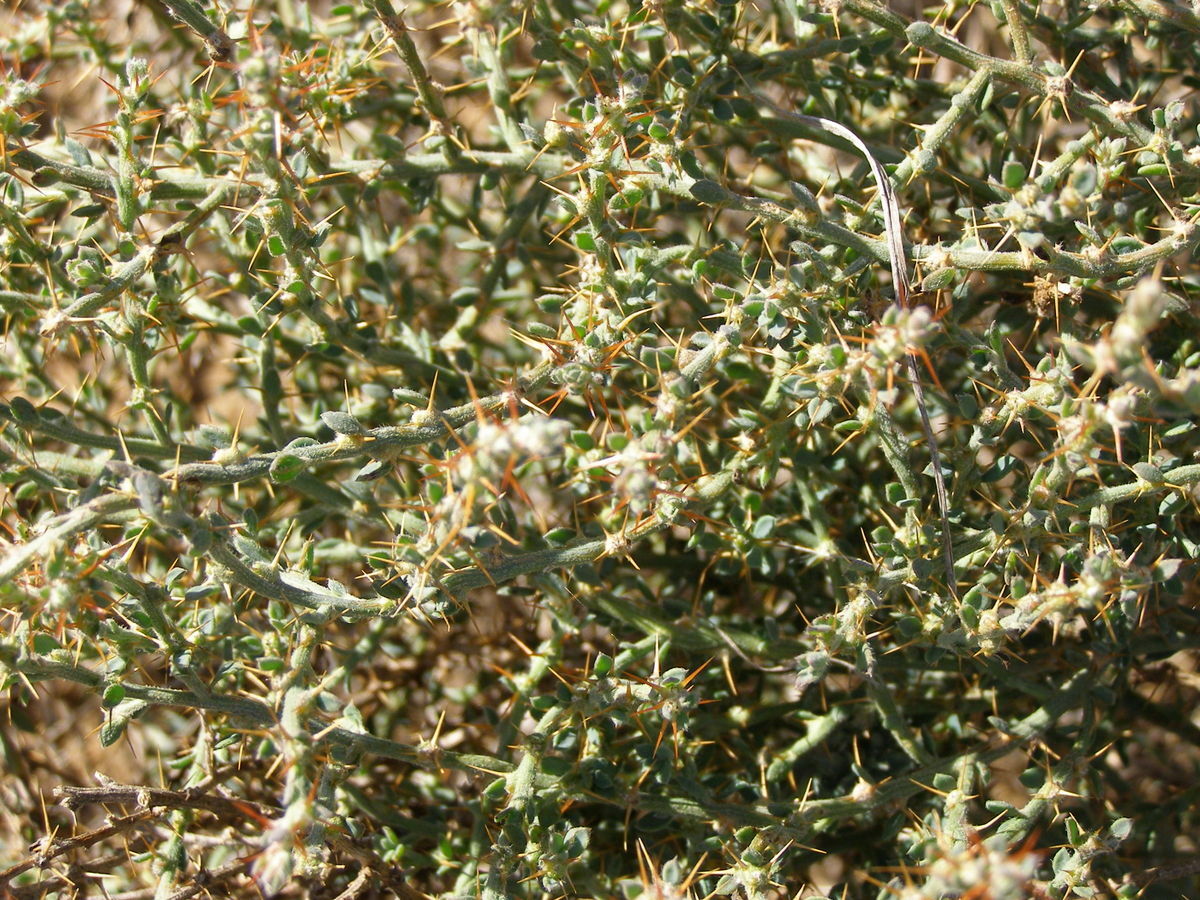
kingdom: Plantae
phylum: Tracheophyta
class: Magnoliopsida
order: Caryophyllales
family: Amaranthaceae
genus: Sclerolaena
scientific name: Sclerolaena muricata
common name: Roly-poly
